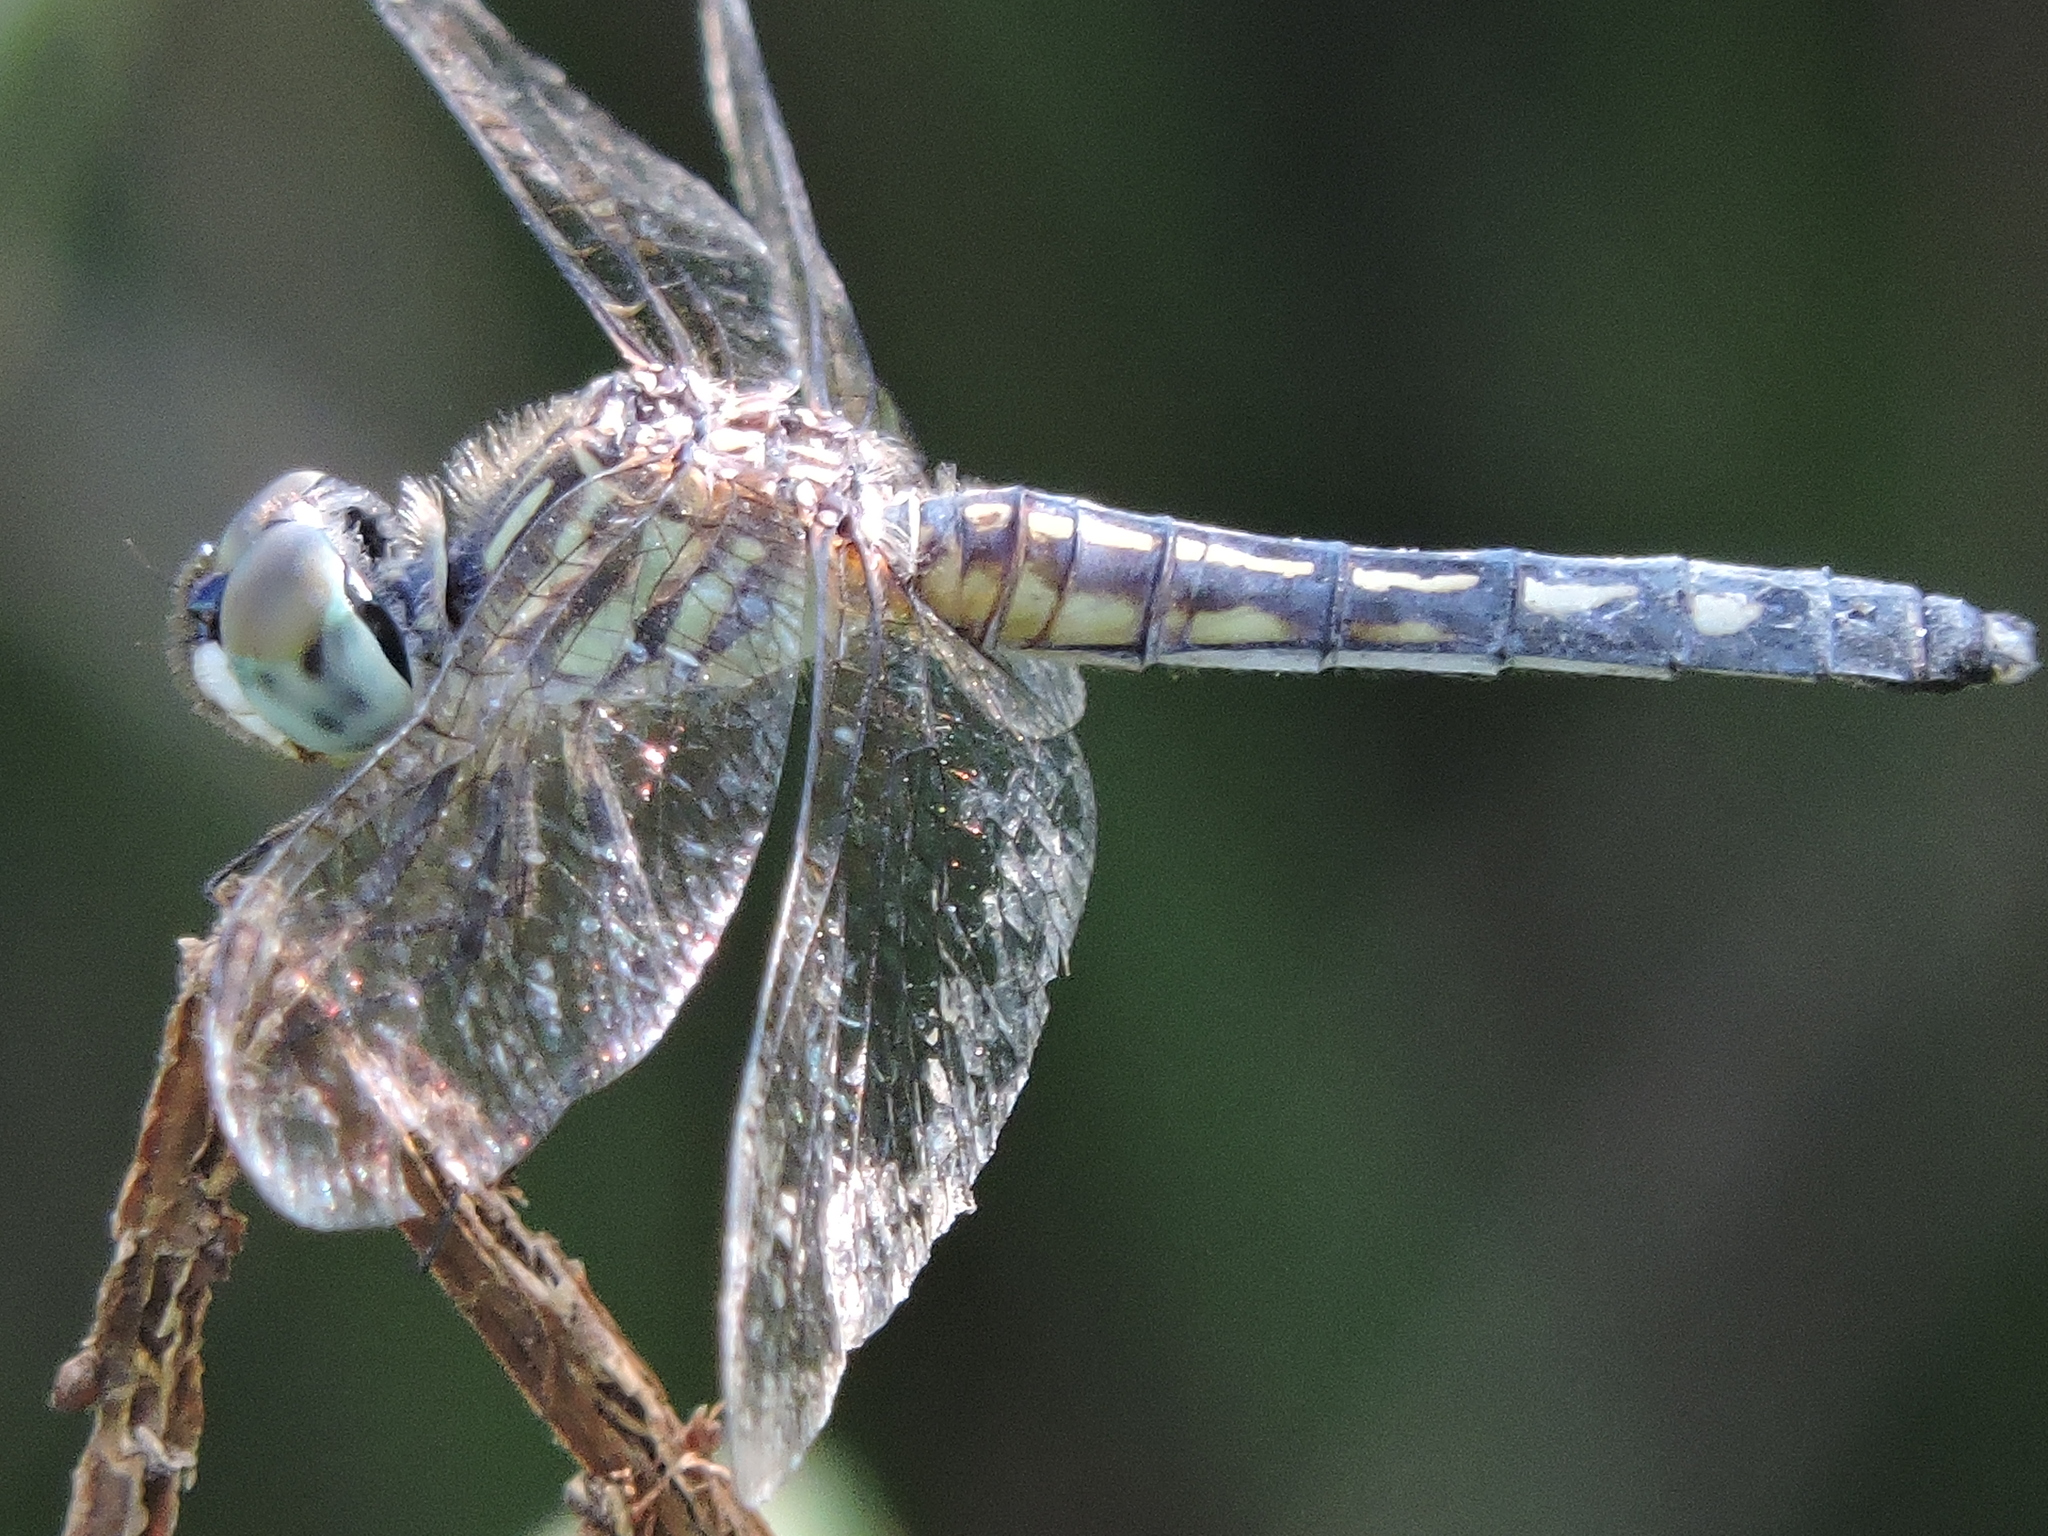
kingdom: Animalia
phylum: Arthropoda
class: Insecta
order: Odonata
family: Libellulidae
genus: Pachydiplax
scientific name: Pachydiplax longipennis
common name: Blue dasher
